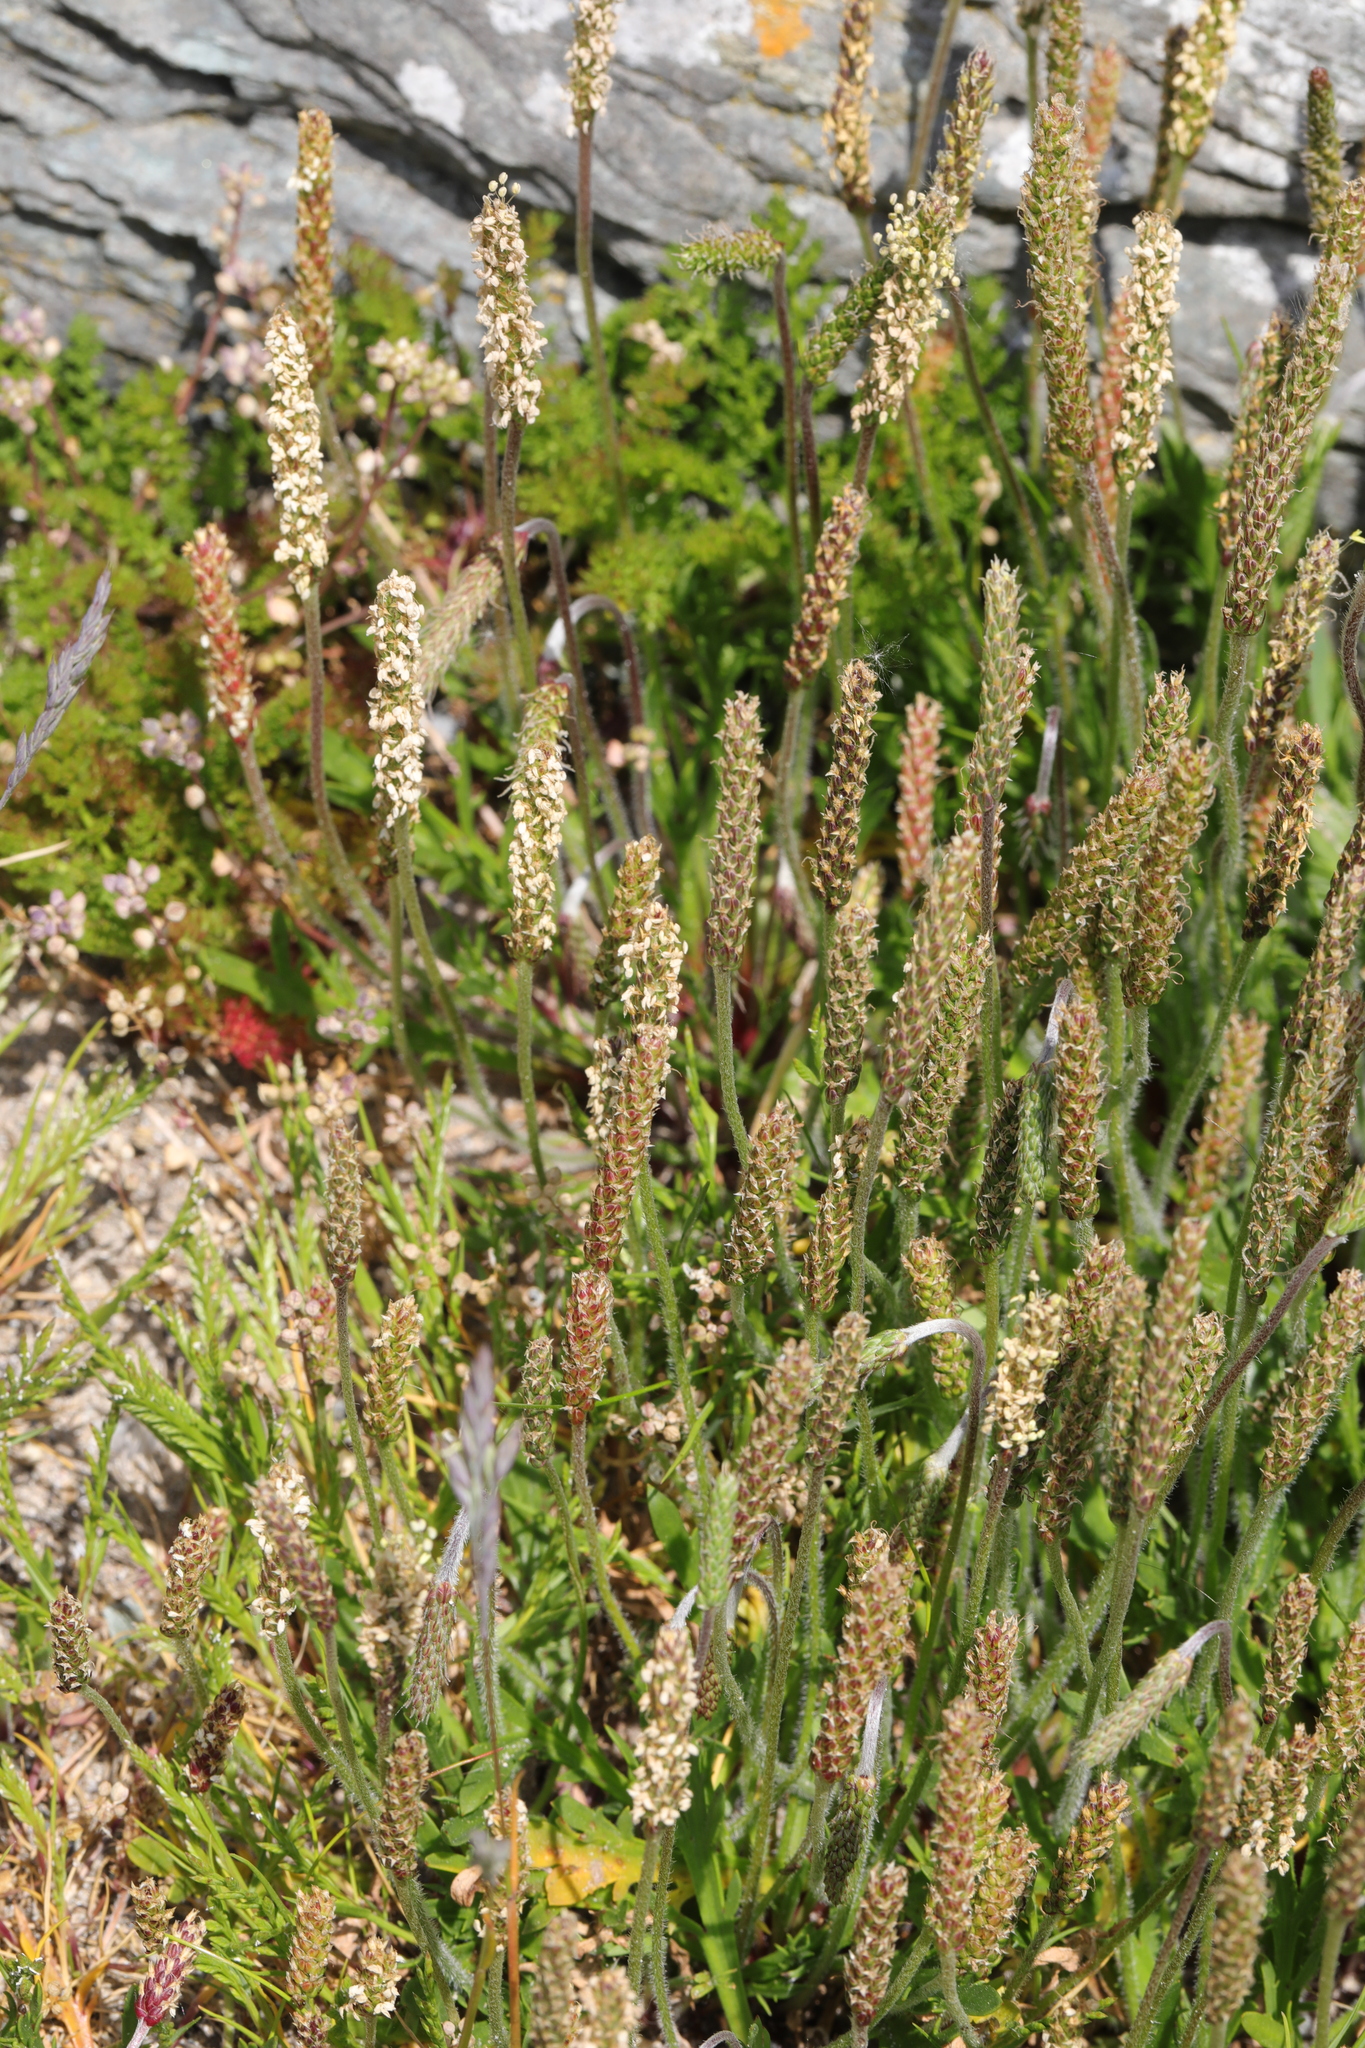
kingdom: Plantae
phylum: Tracheophyta
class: Magnoliopsida
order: Lamiales
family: Plantaginaceae
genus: Plantago
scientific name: Plantago coronopus
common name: Buck's-horn plantain
